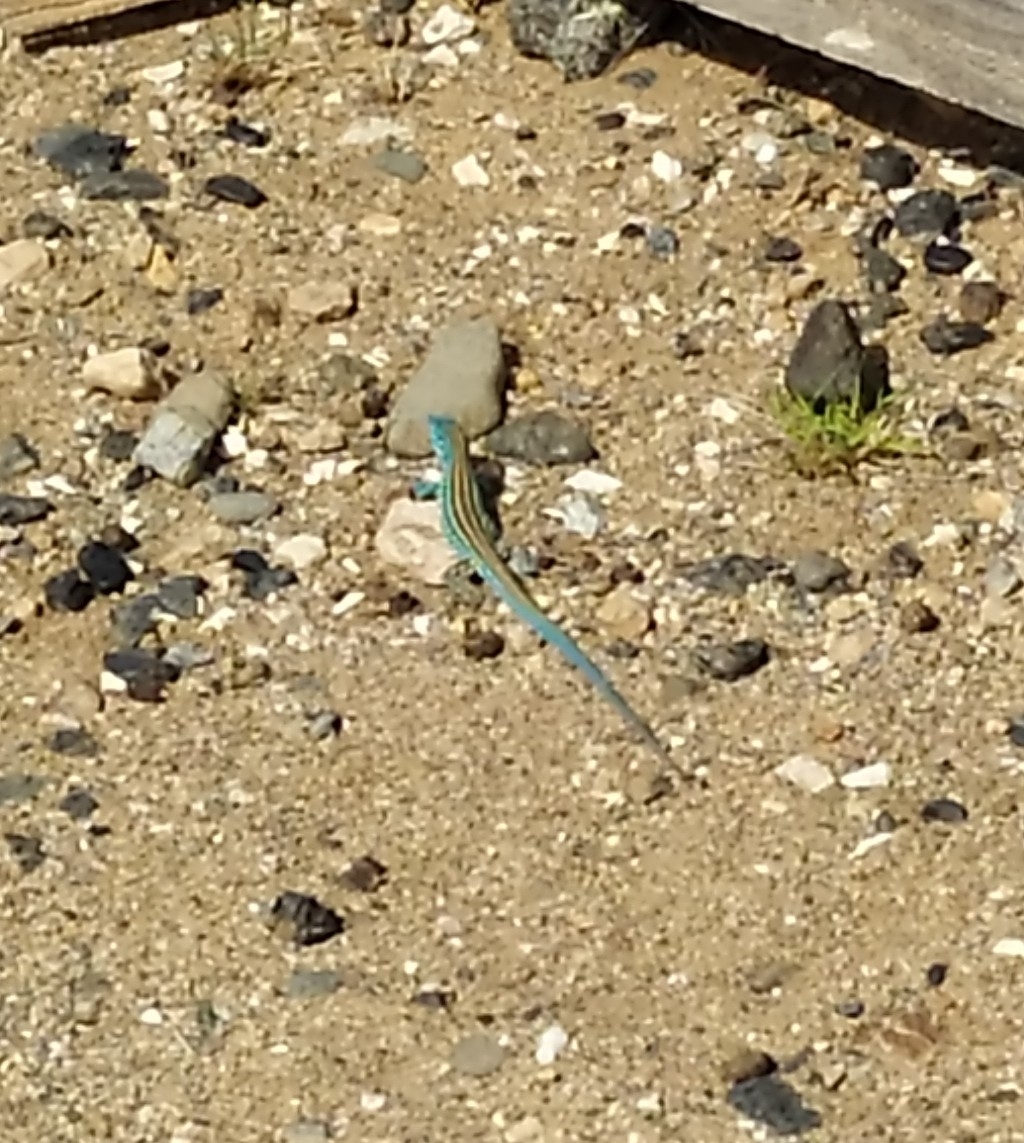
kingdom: Animalia
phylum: Chordata
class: Squamata
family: Teiidae
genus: Cnemidophorus
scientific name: Cnemidophorus splendidus
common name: Blue rainbow lizard
